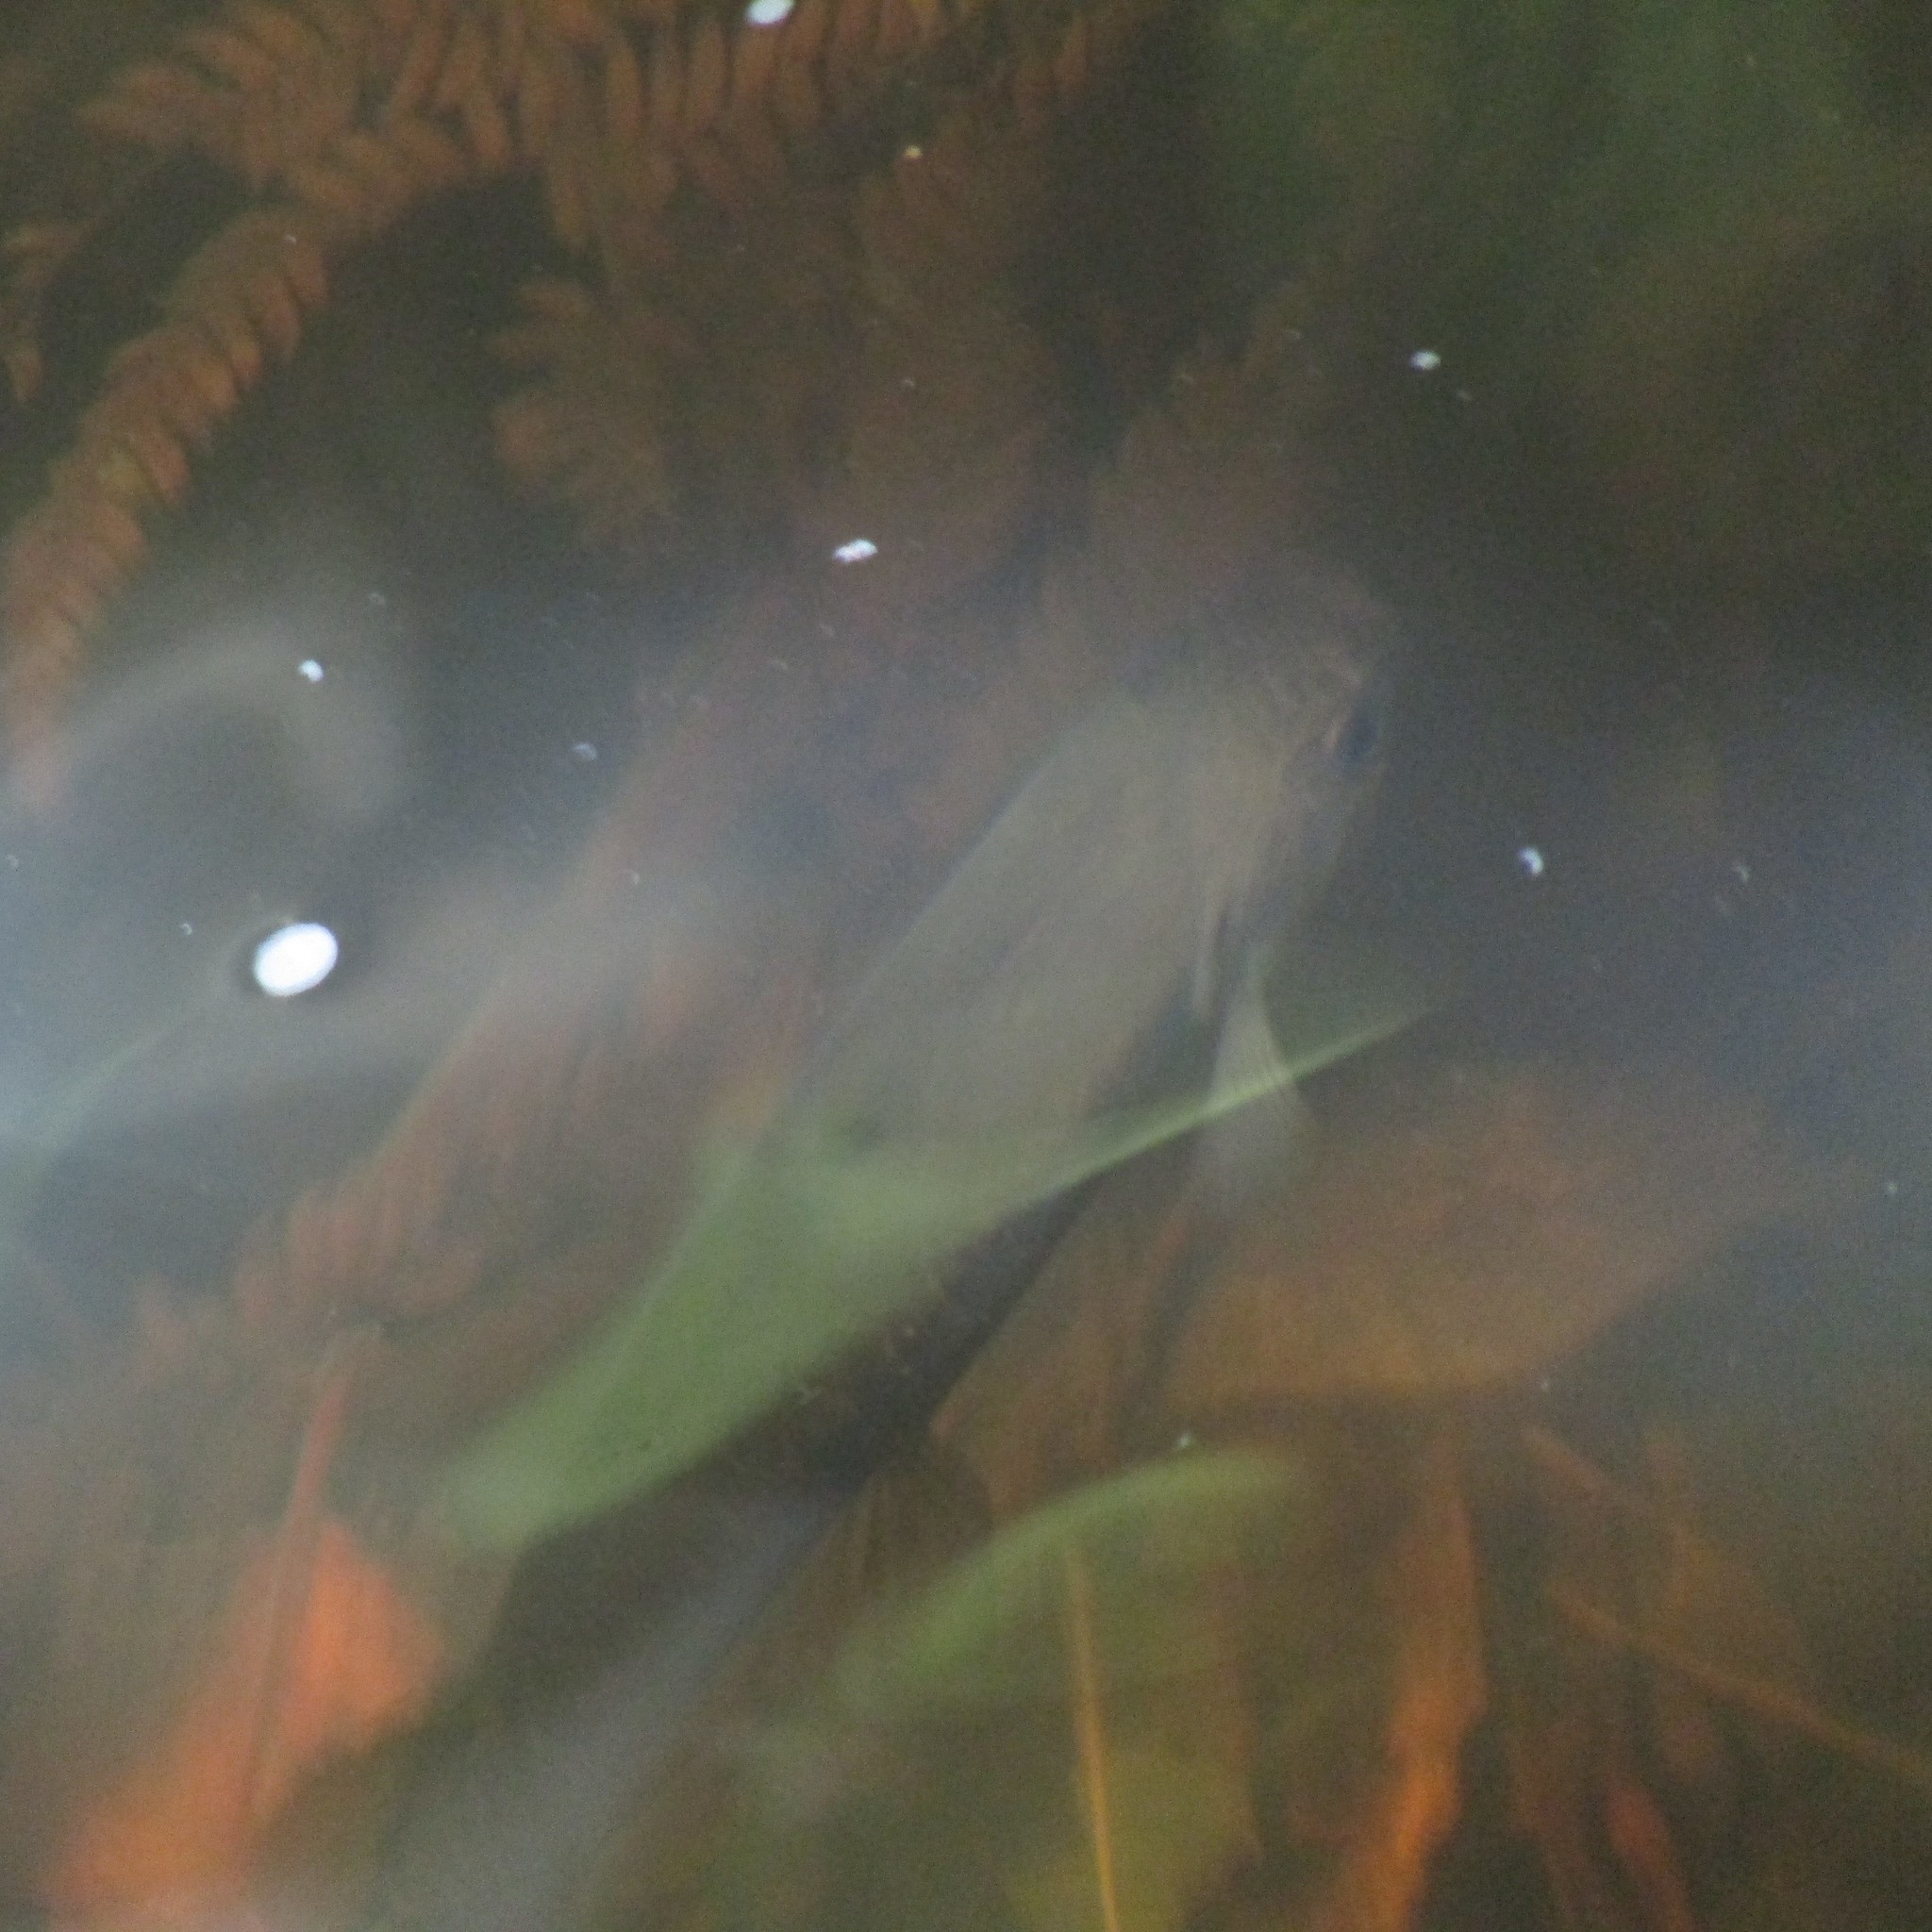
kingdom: Animalia
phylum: Chordata
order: Osmeriformes
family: Galaxiidae
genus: Galaxias
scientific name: Galaxias fasciatus
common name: Banded kokopu
